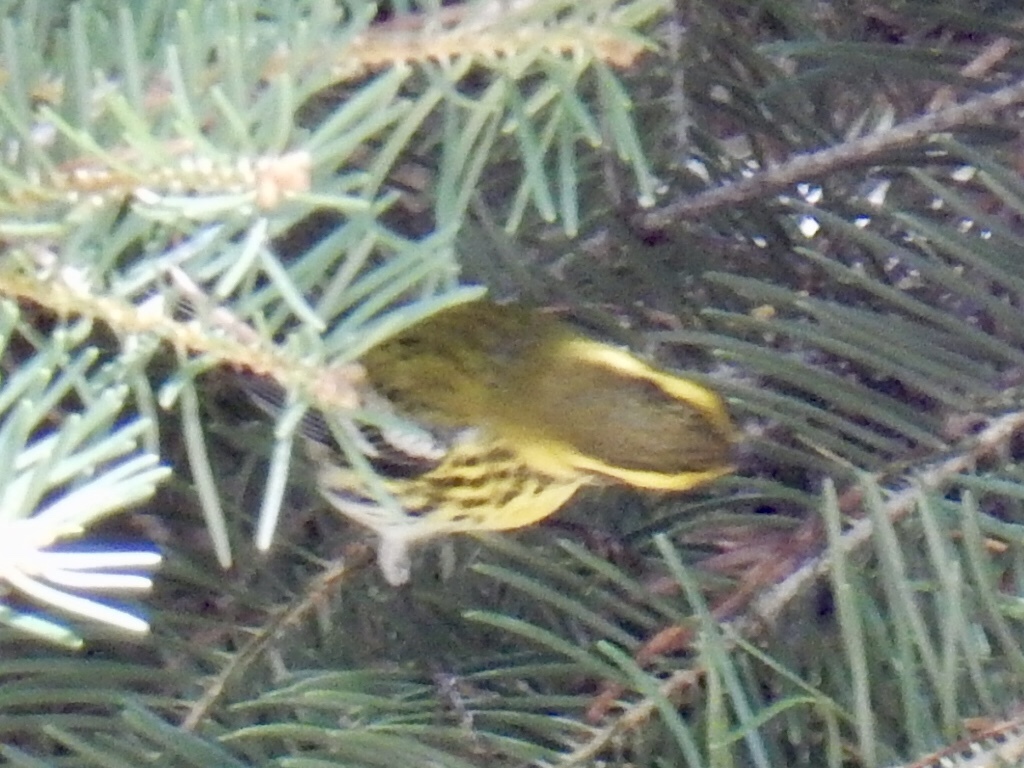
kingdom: Animalia
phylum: Chordata
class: Aves
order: Passeriformes
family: Parulidae
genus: Setophaga
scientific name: Setophaga townsendi
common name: Townsend's warbler
